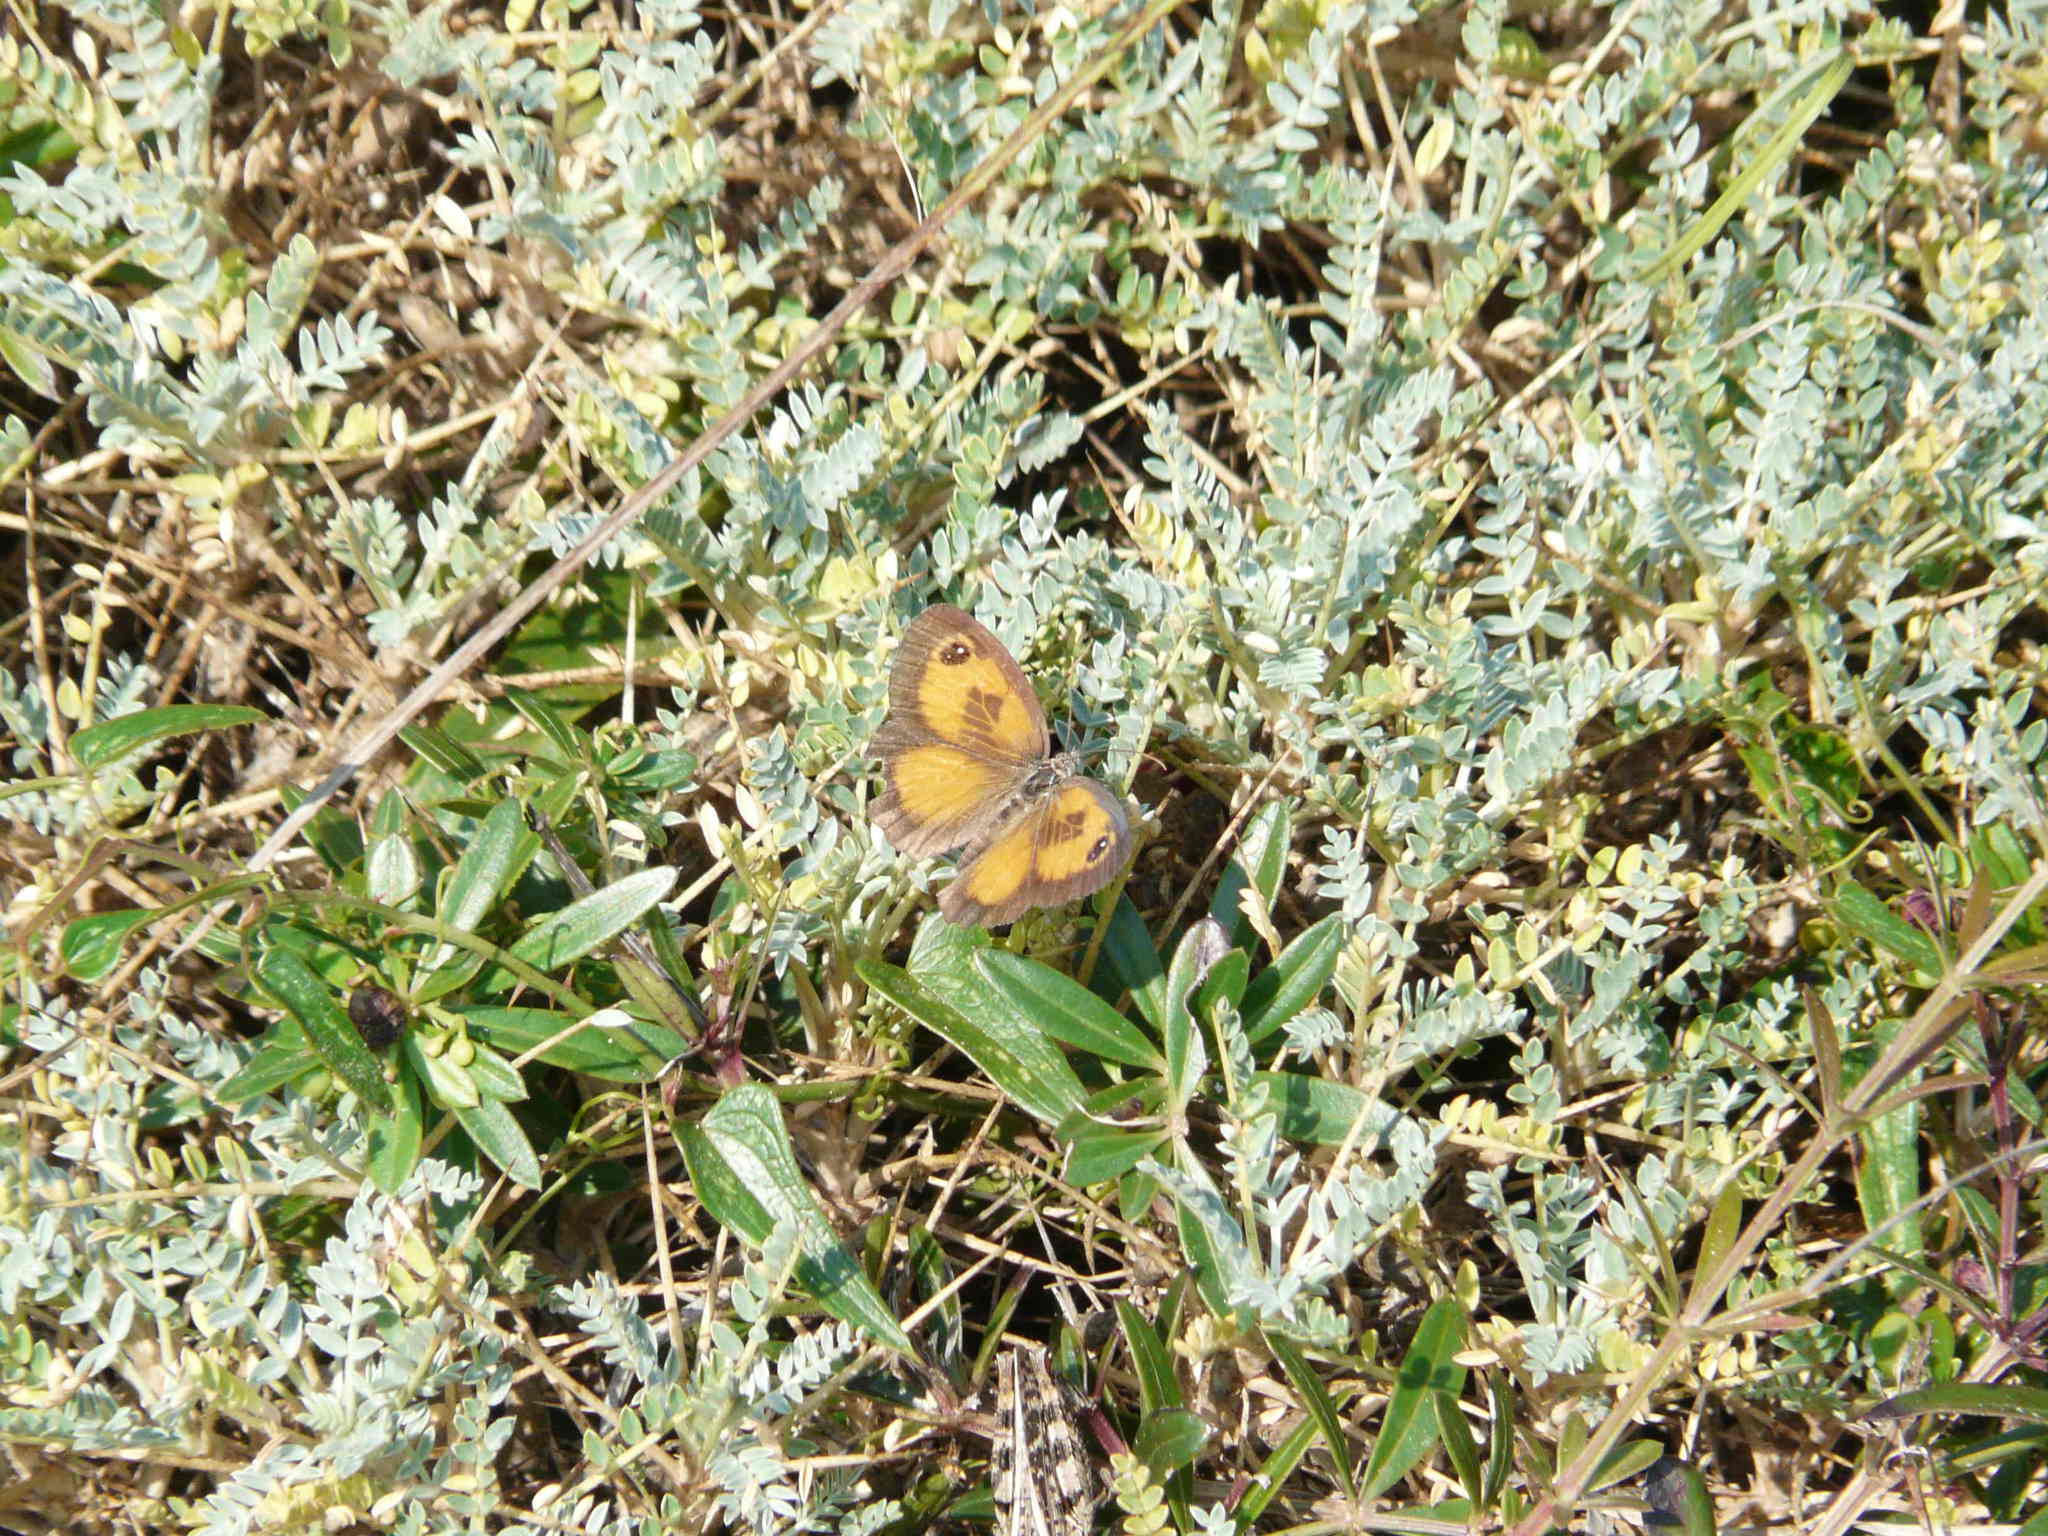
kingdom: Animalia
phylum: Arthropoda
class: Insecta
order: Lepidoptera
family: Nymphalidae
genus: Pyronia
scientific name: Pyronia cecilia
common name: Southern gatekeeper
